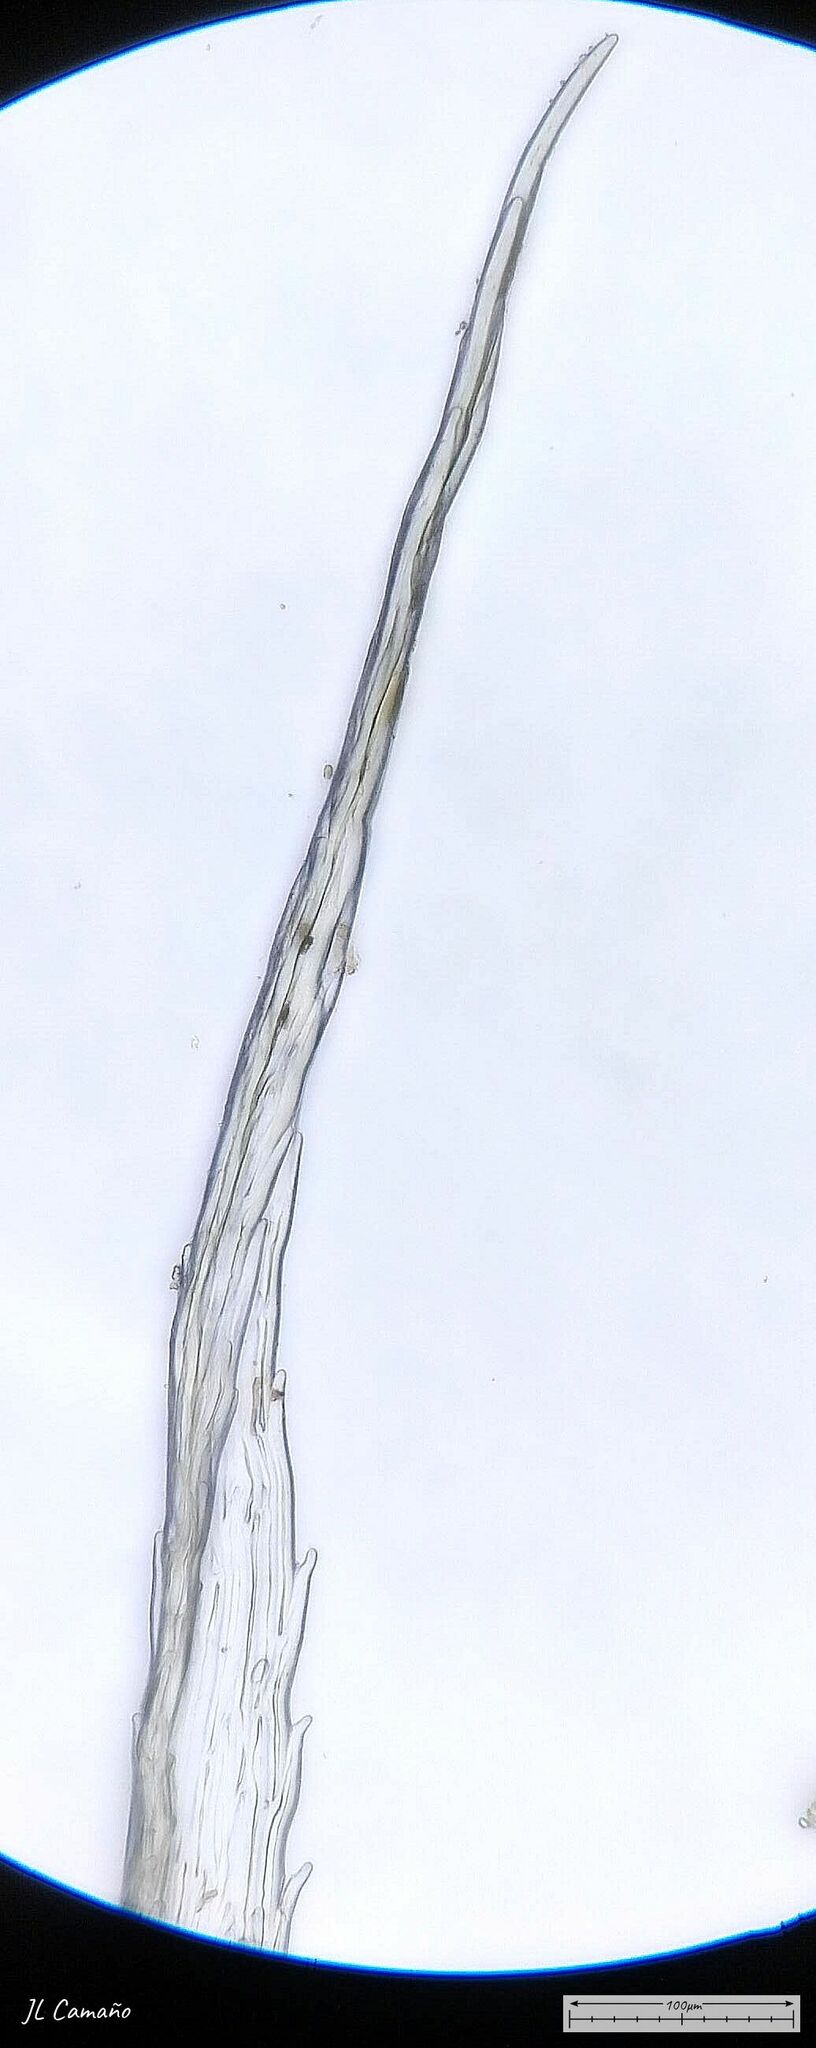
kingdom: Plantae
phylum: Bryophyta
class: Bryopsida
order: Grimmiales
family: Grimmiaceae
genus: Bucklandiella
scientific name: Bucklandiella heterosticha
